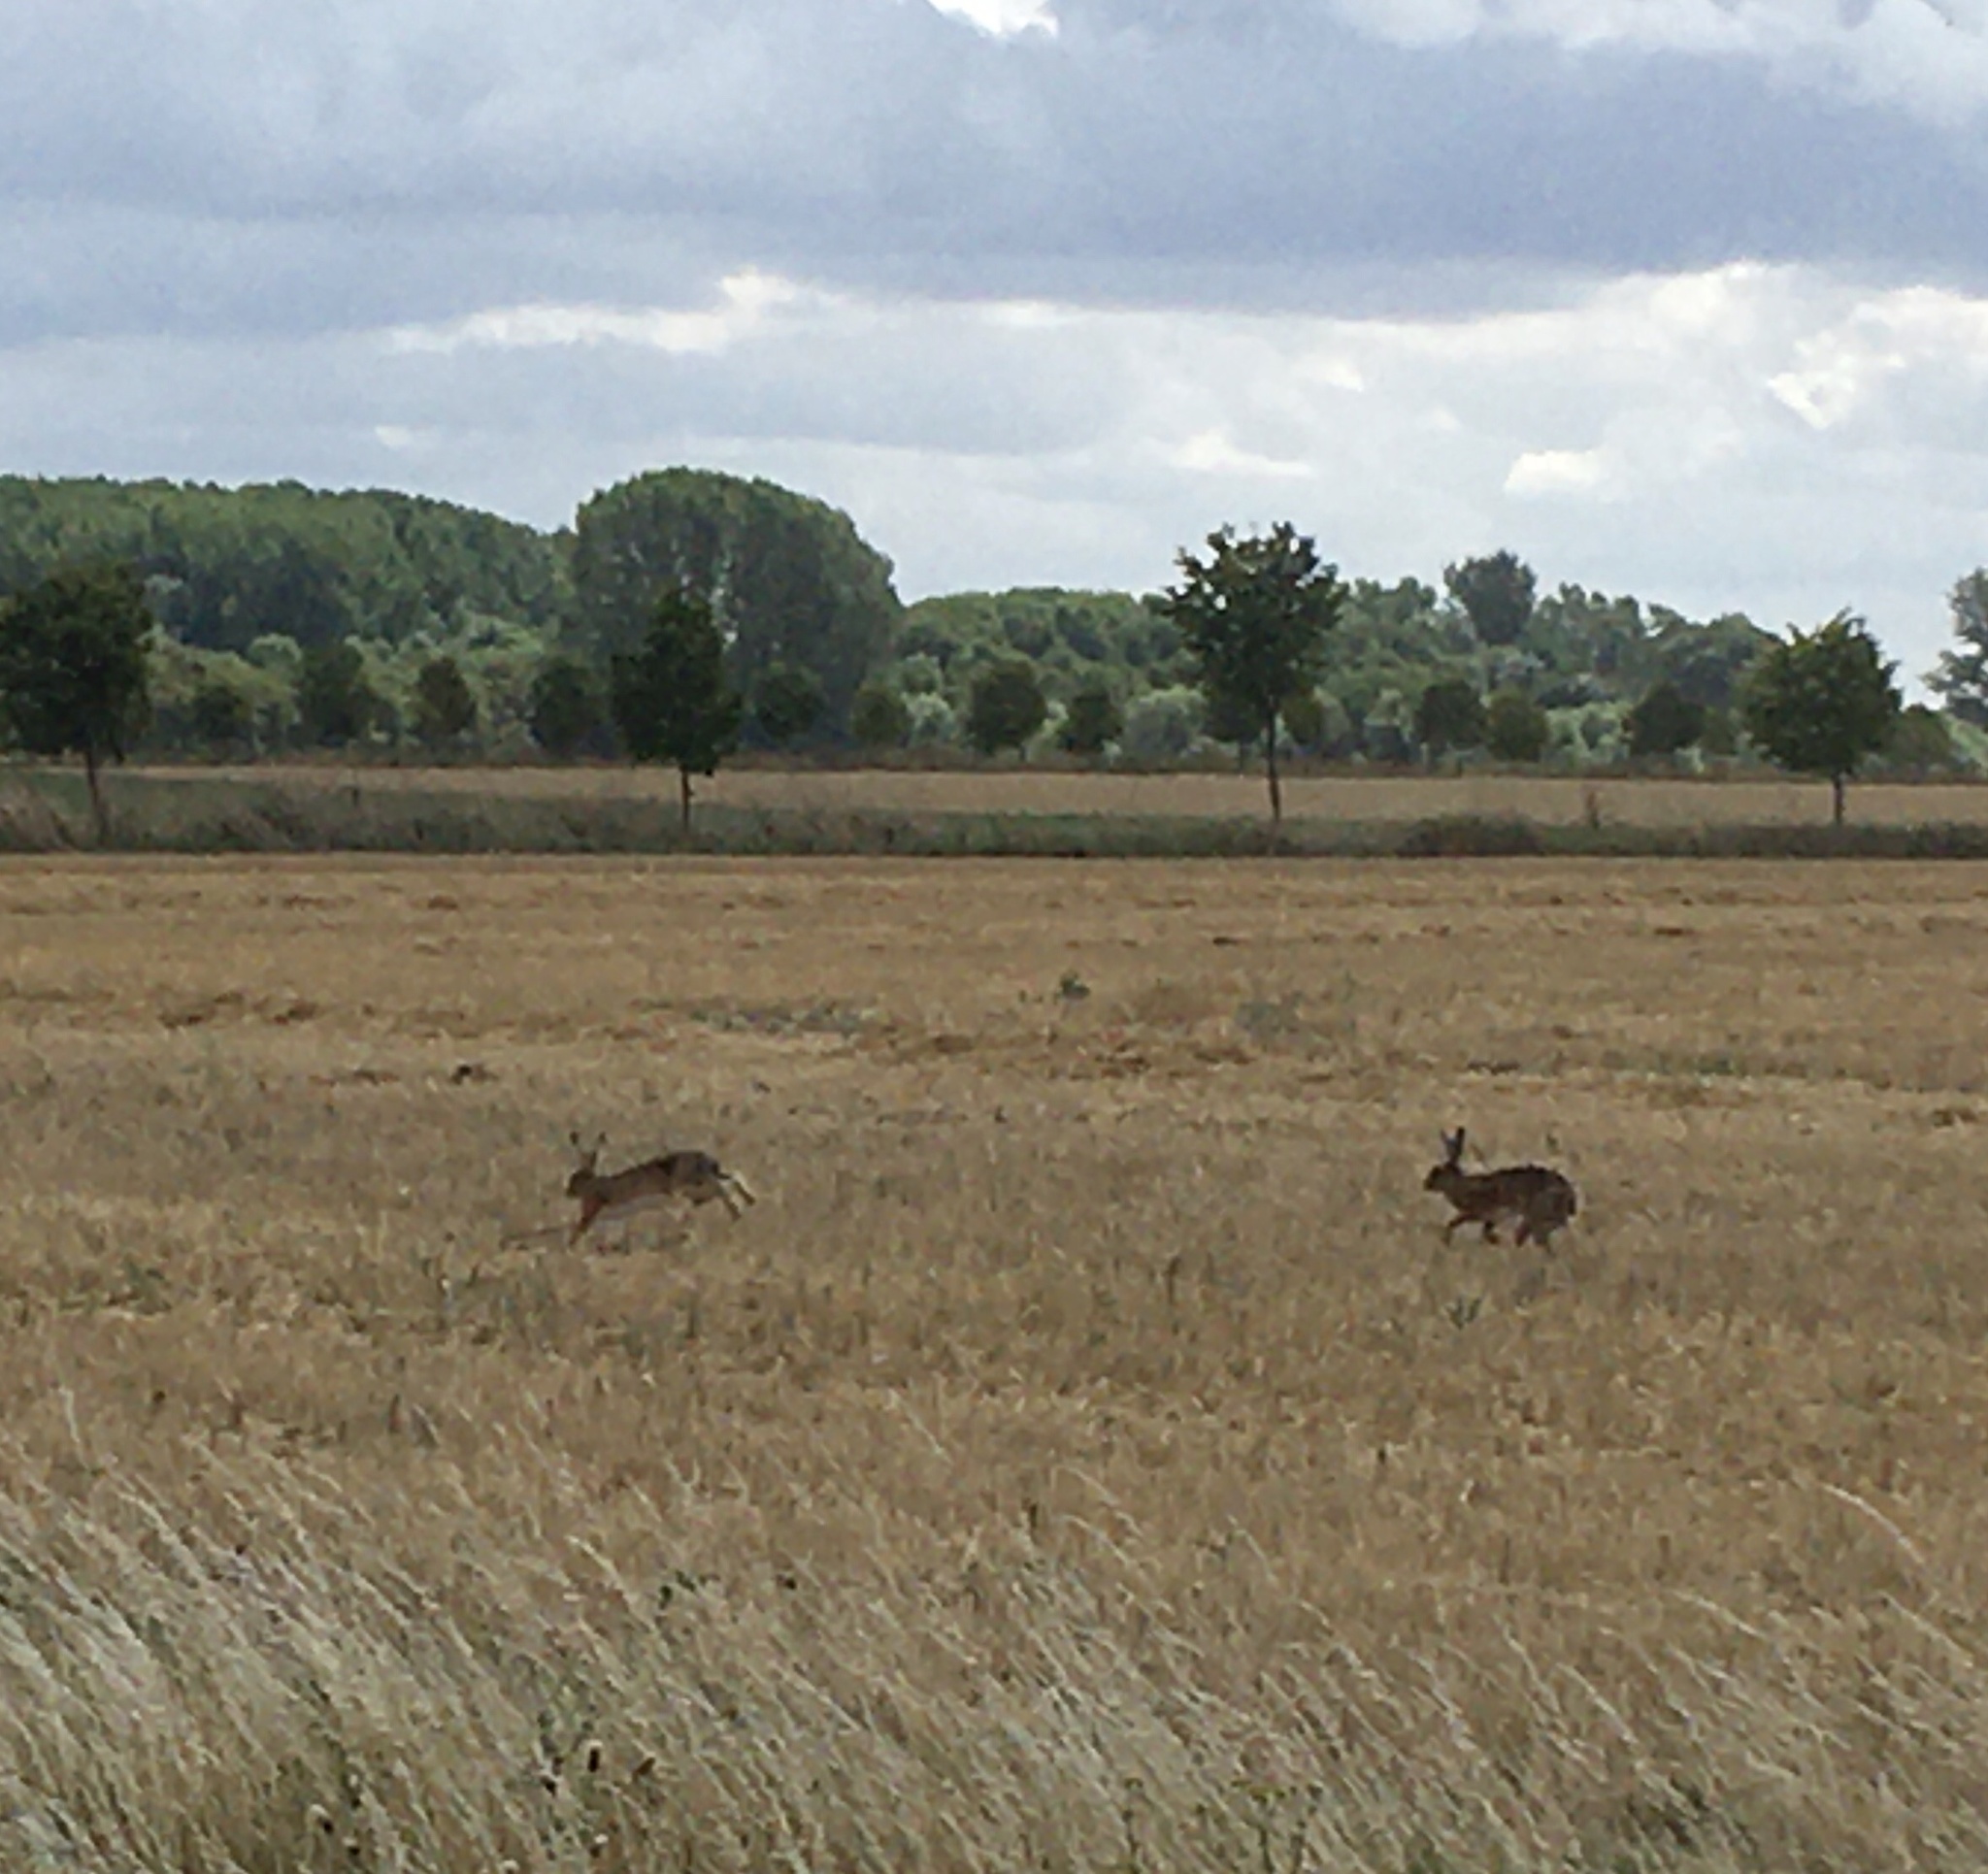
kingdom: Animalia
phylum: Chordata
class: Mammalia
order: Lagomorpha
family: Leporidae
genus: Lepus
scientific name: Lepus europaeus
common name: European hare
